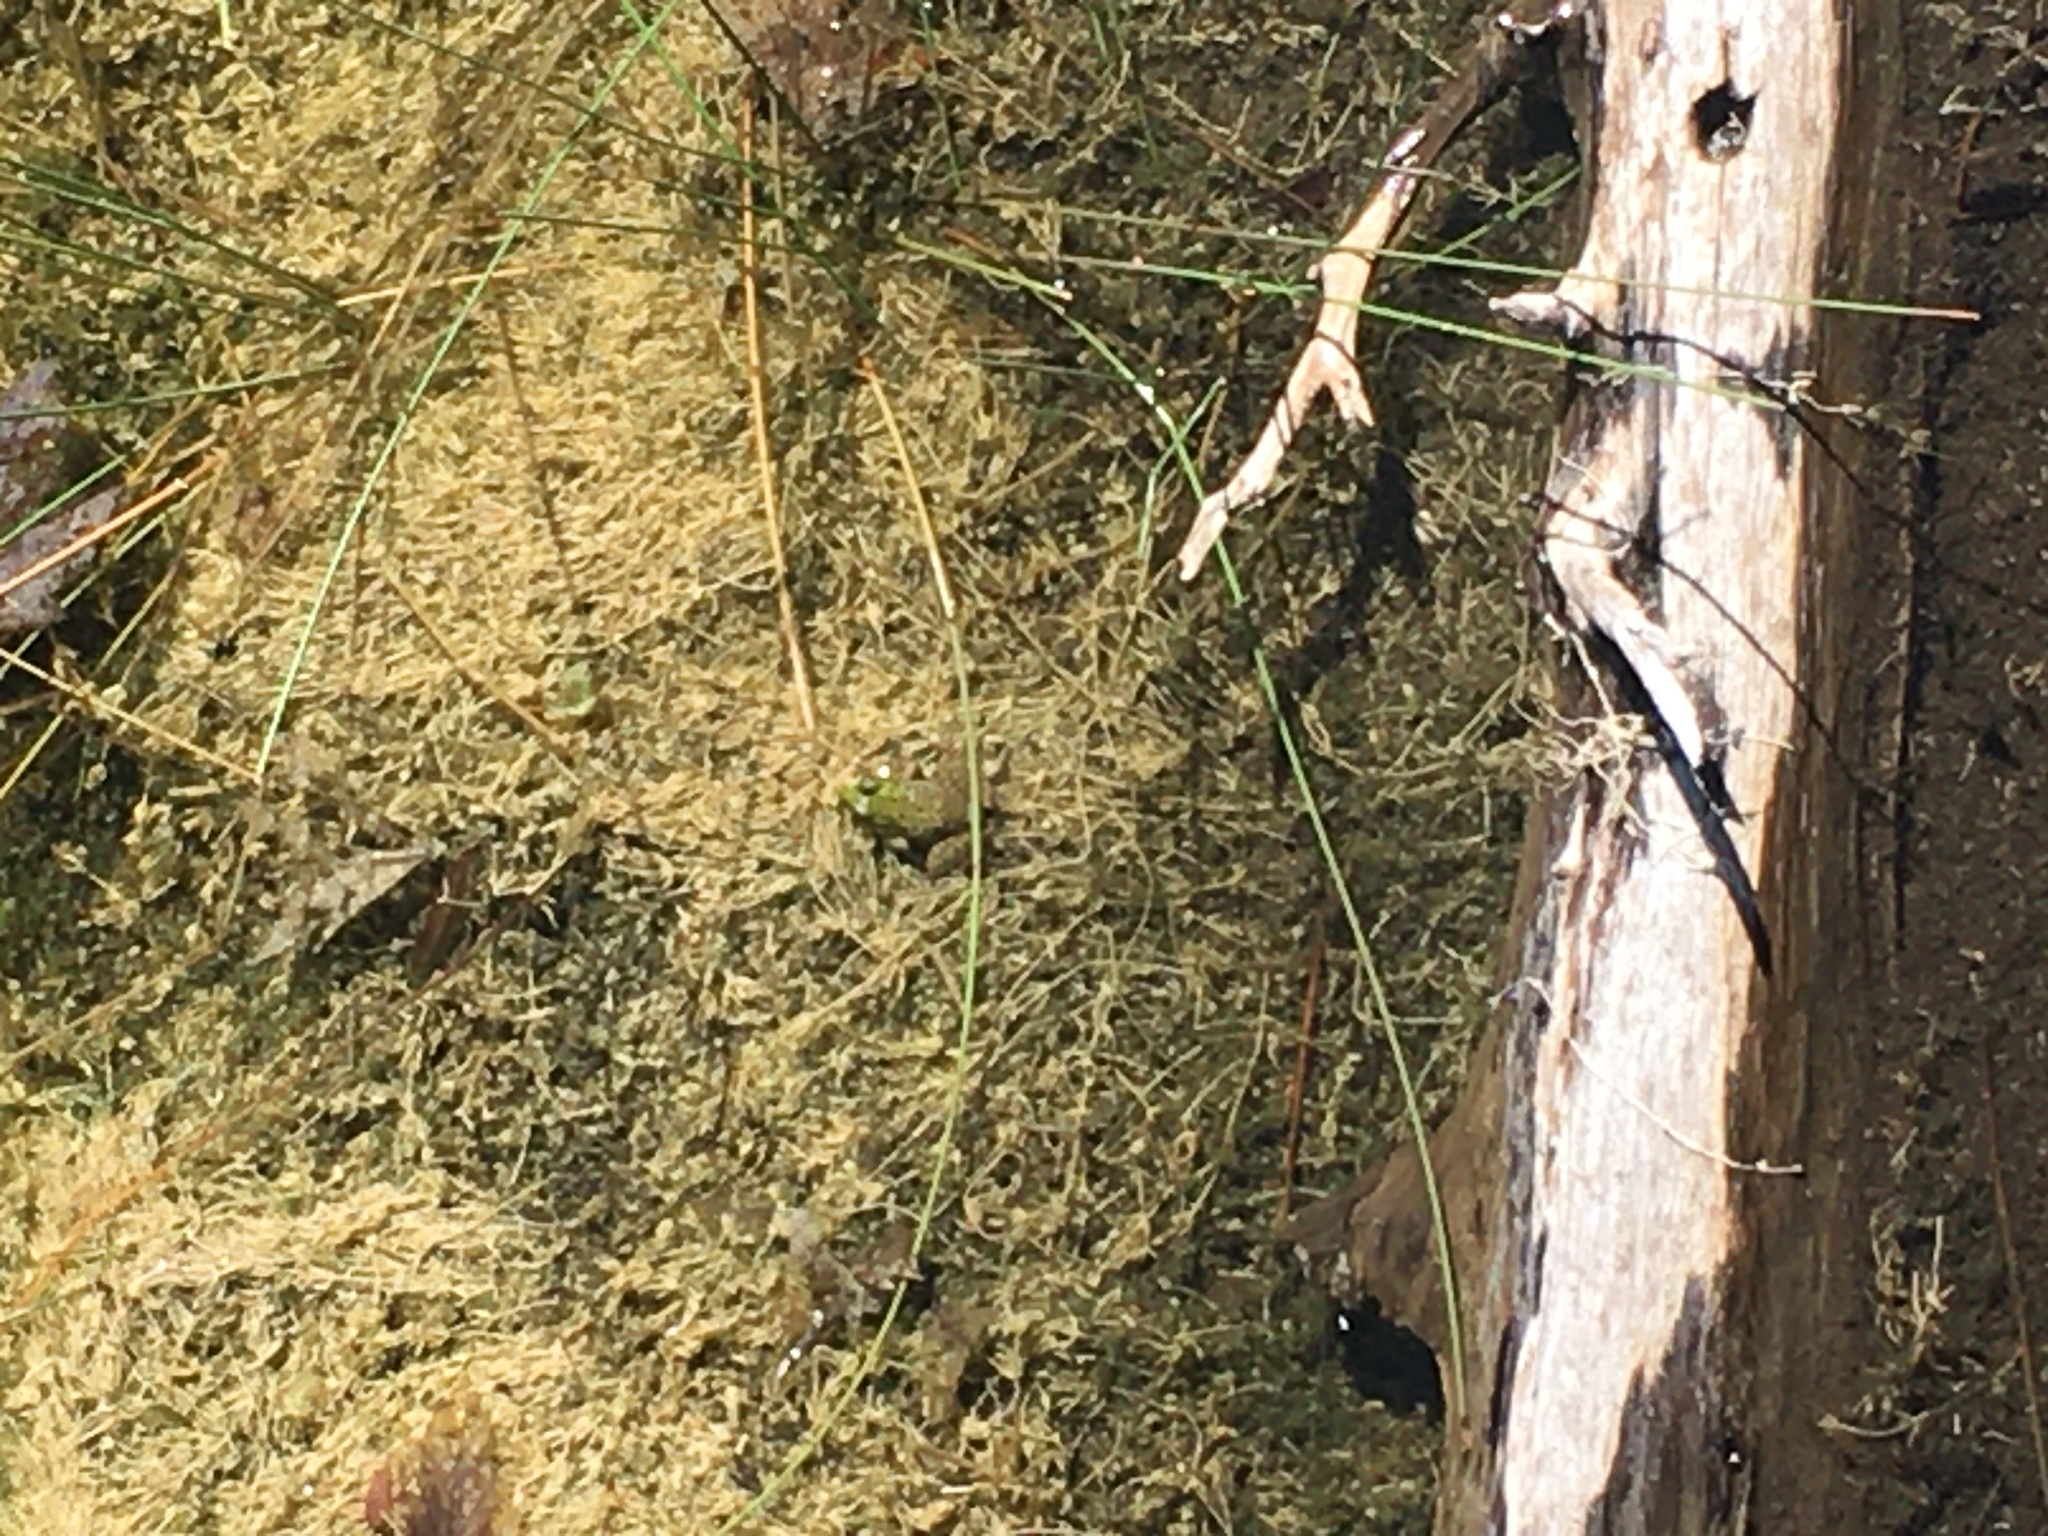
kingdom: Animalia
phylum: Chordata
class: Amphibia
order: Anura
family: Ranidae
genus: Lithobates
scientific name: Lithobates clamitans
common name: Green frog
